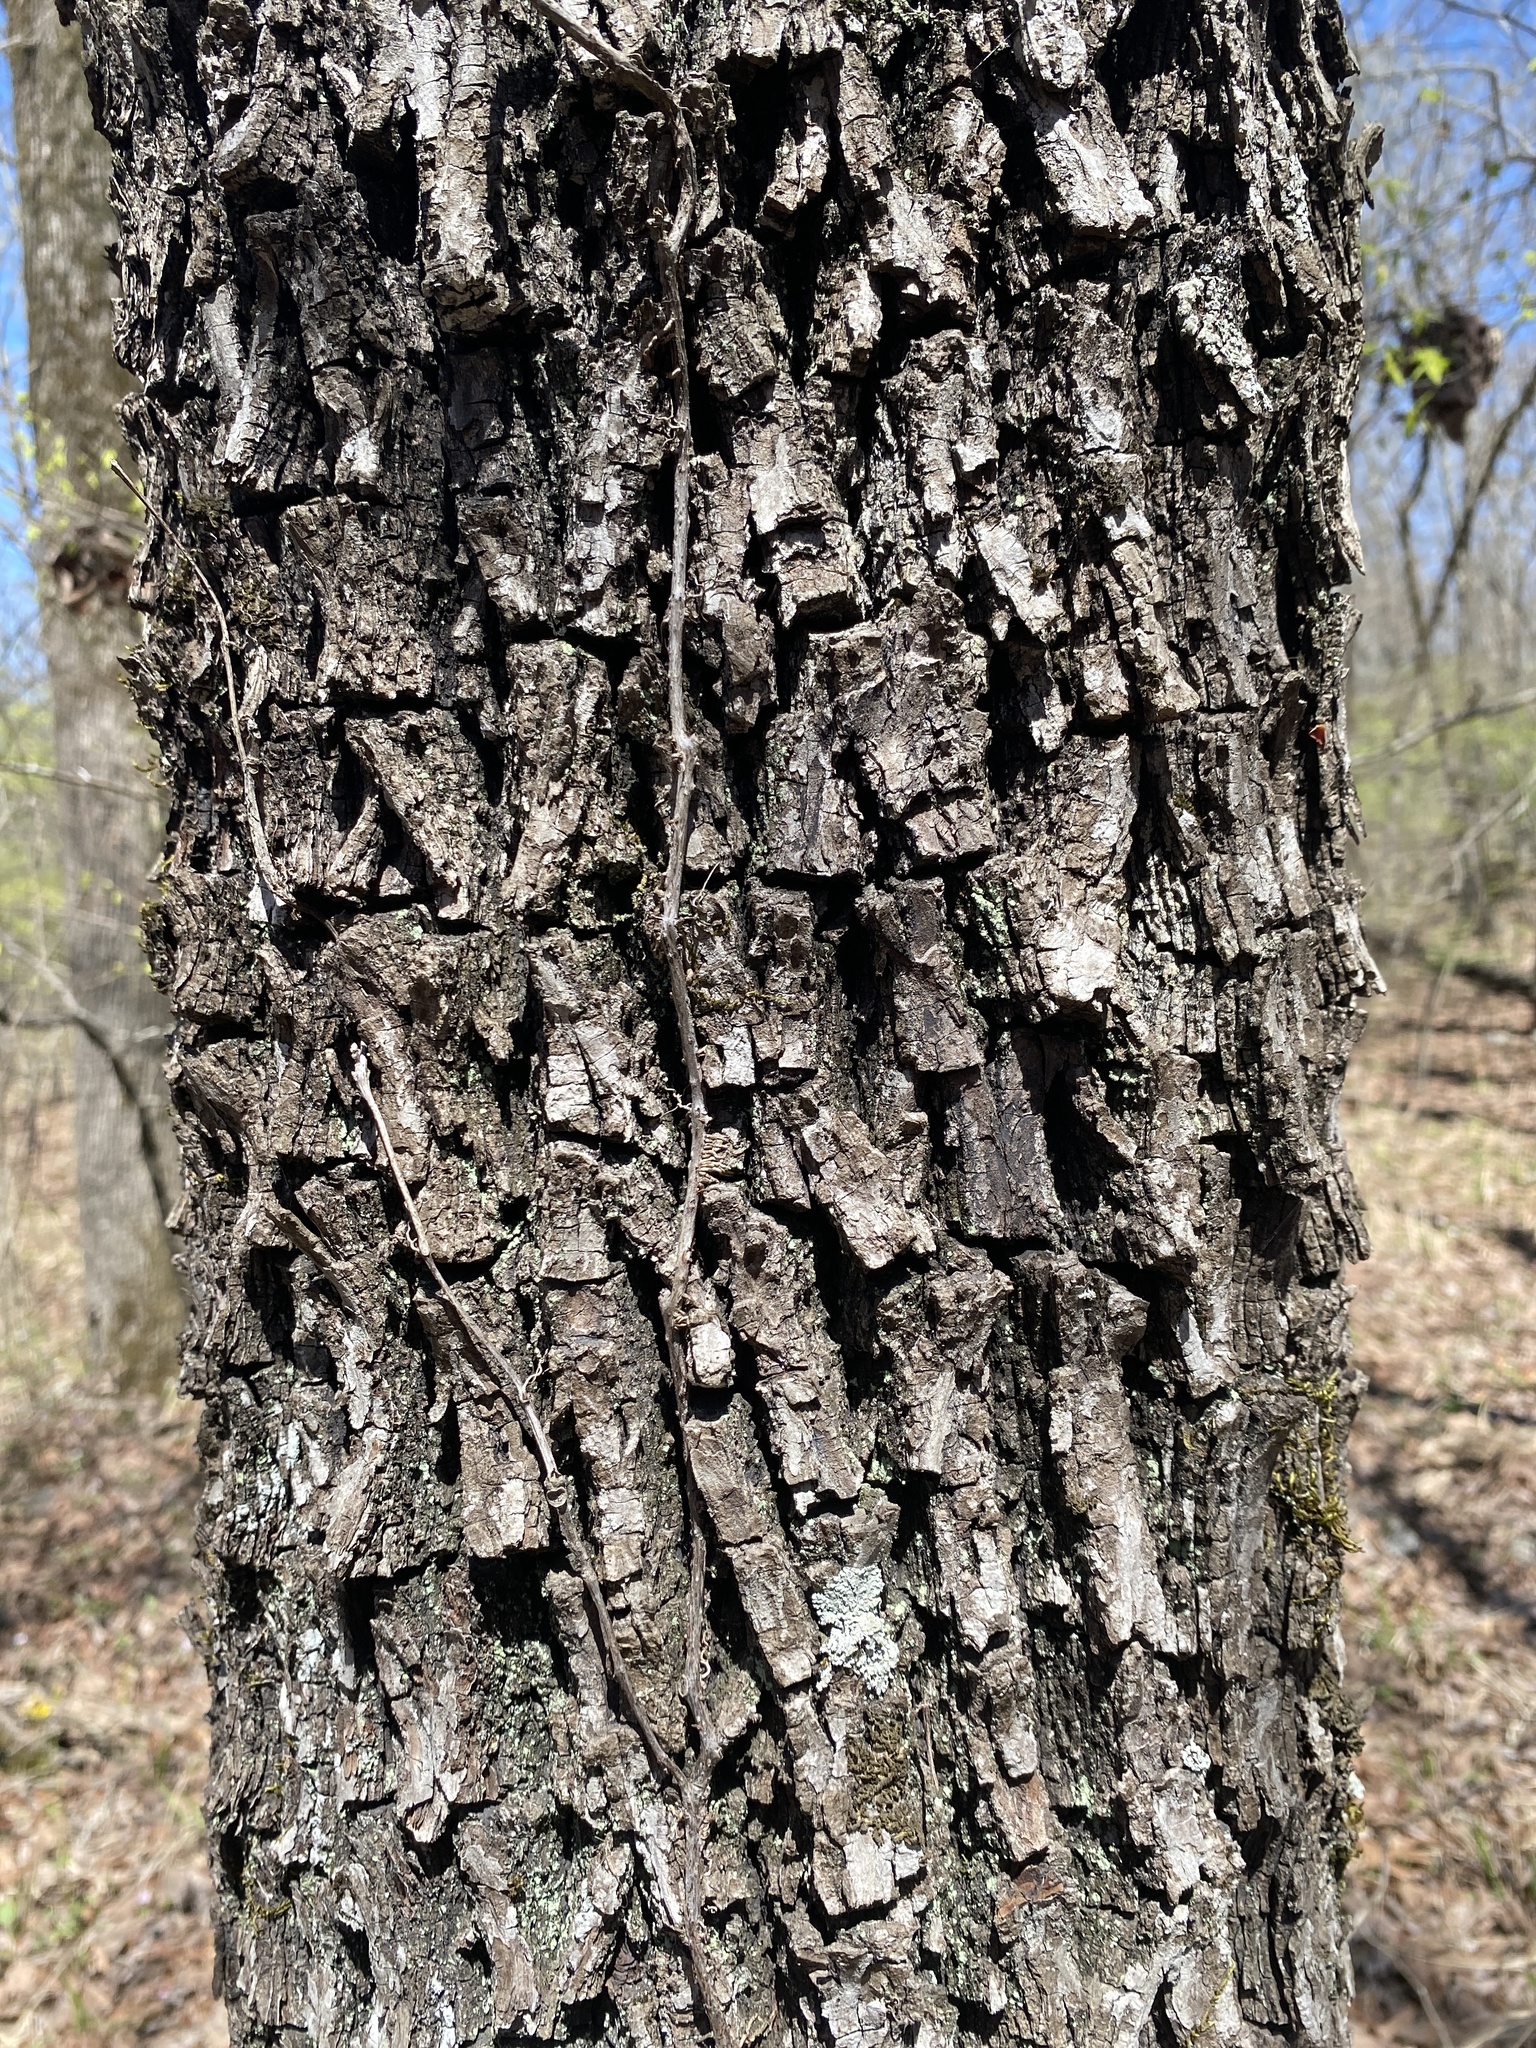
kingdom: Plantae
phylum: Tracheophyta
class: Magnoliopsida
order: Fagales
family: Juglandaceae
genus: Carya
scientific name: Carya texana
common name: Black hickory
